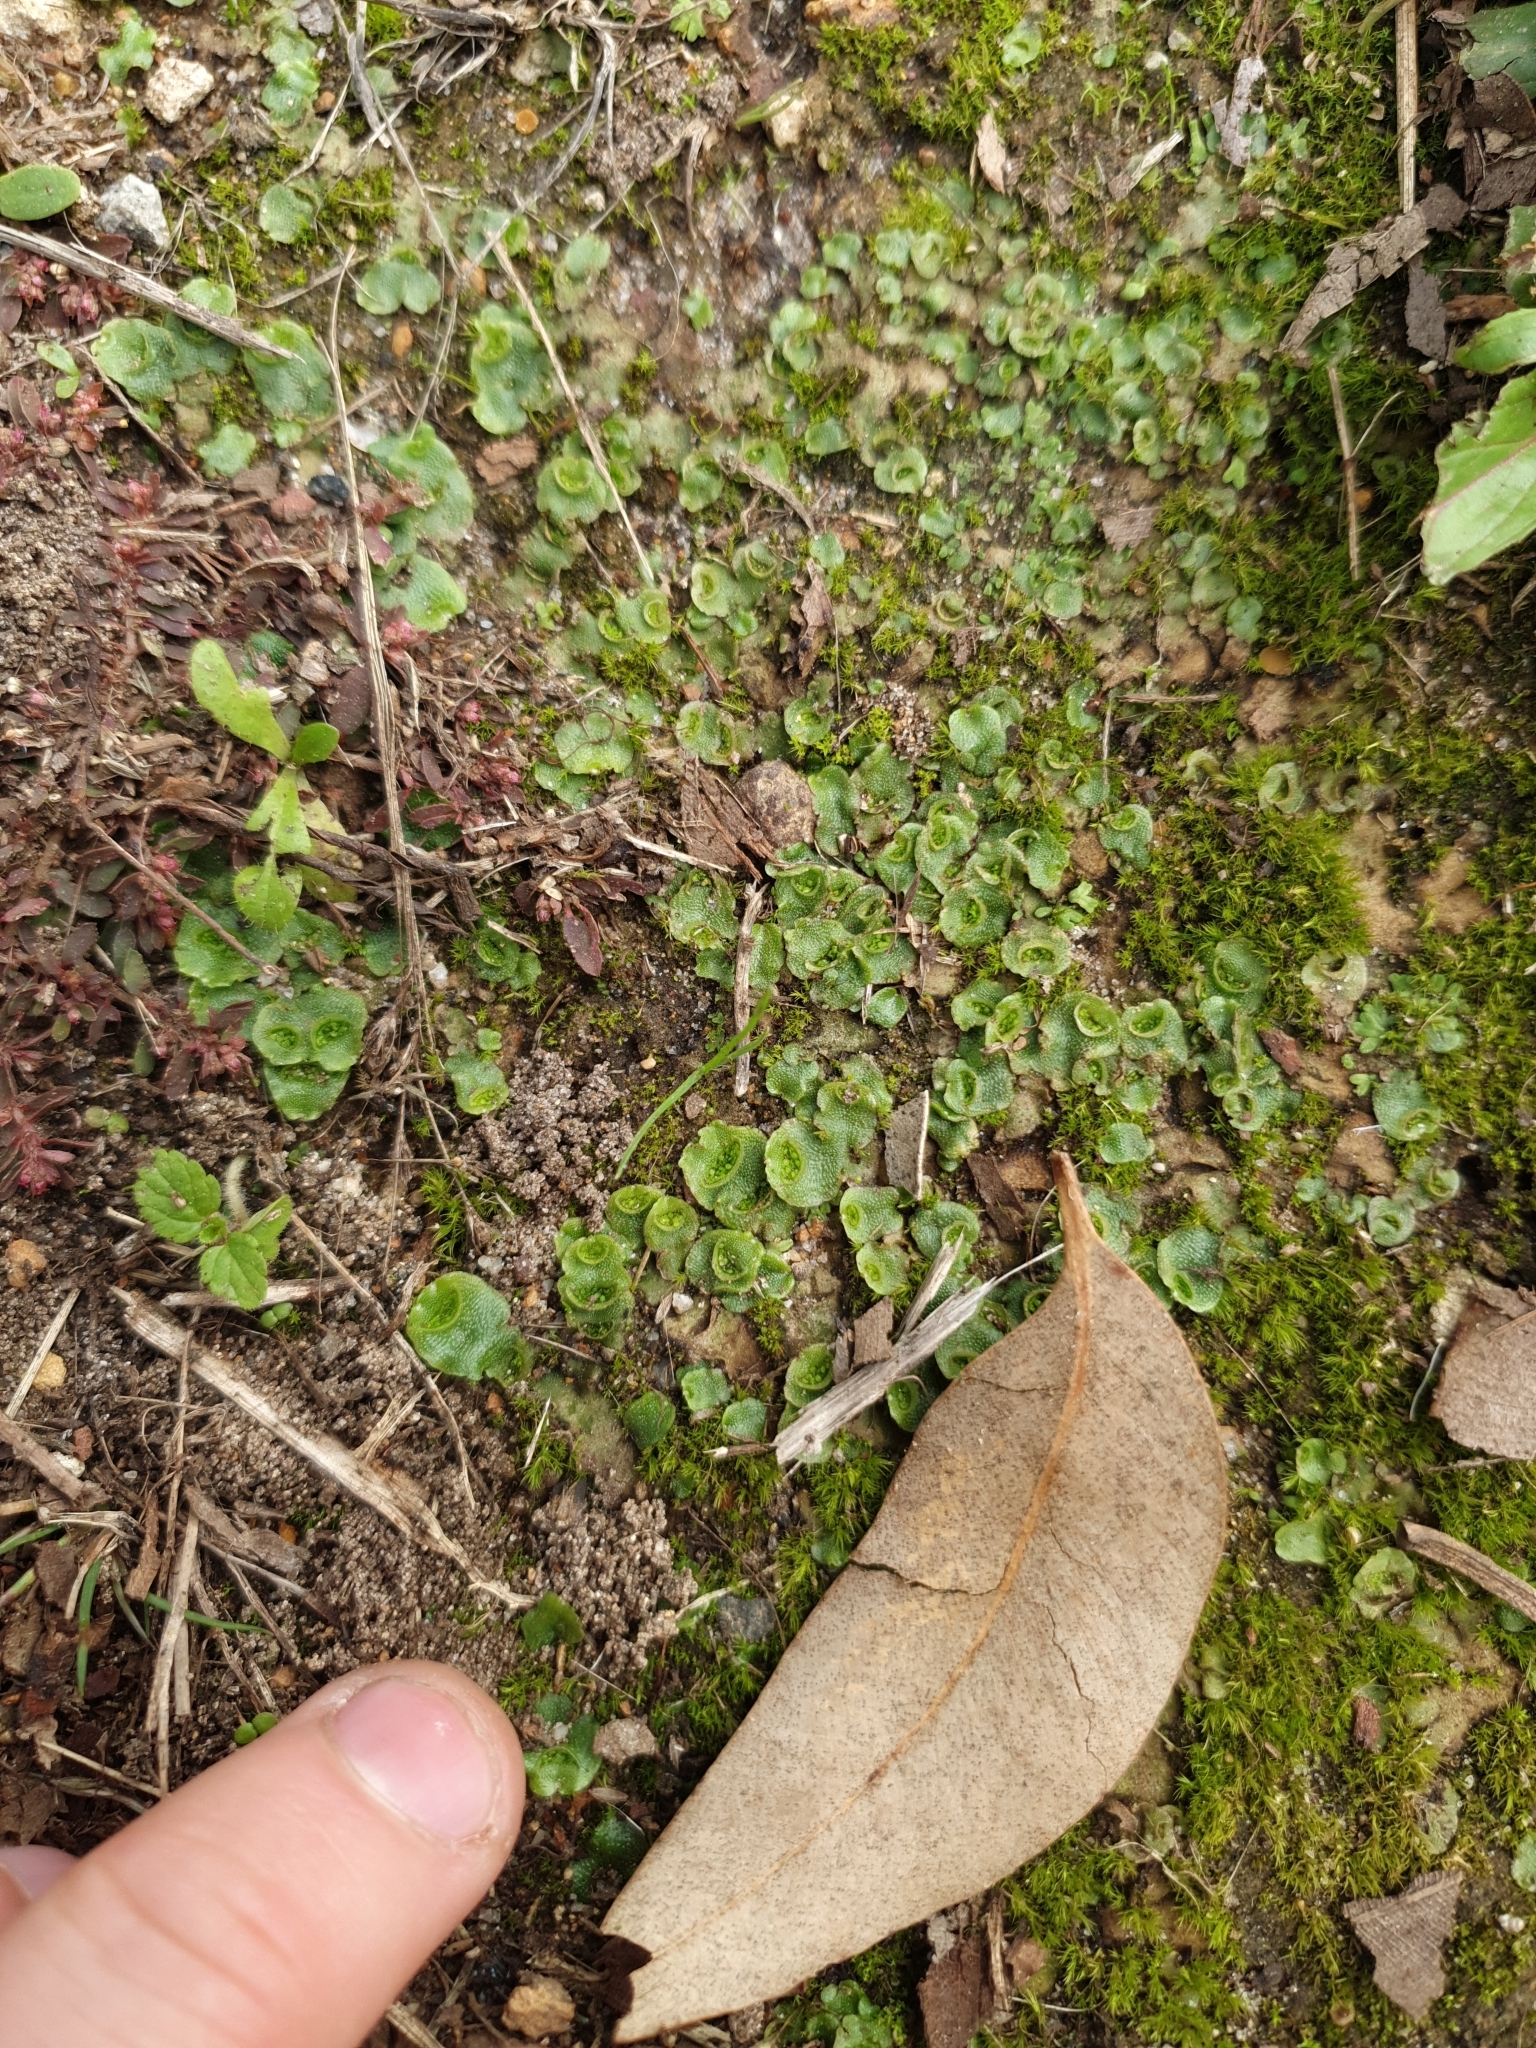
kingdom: Plantae
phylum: Marchantiophyta
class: Marchantiopsida
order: Lunulariales
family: Lunulariaceae
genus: Lunularia
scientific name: Lunularia cruciata
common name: Crescent-cup liverwort
